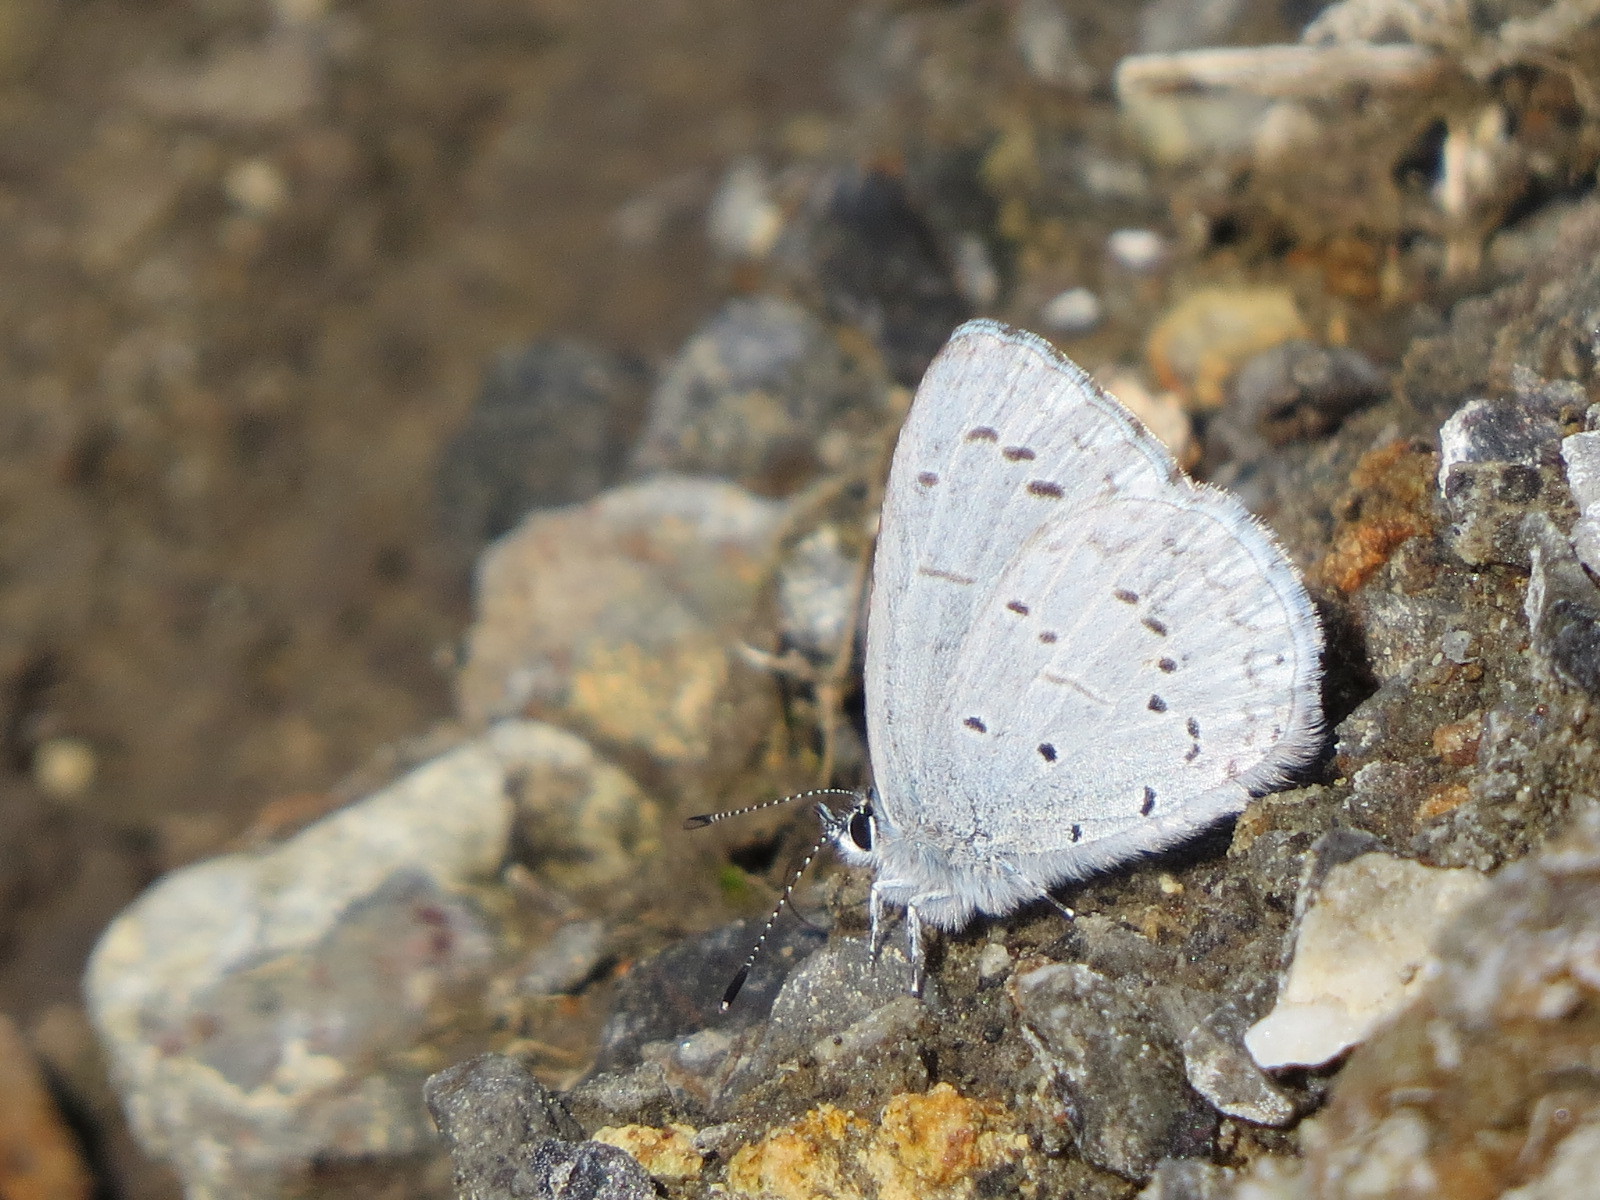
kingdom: Animalia
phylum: Arthropoda
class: Insecta
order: Lepidoptera
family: Lycaenidae
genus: Celastrina
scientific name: Celastrina ladon
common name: Spring azure
